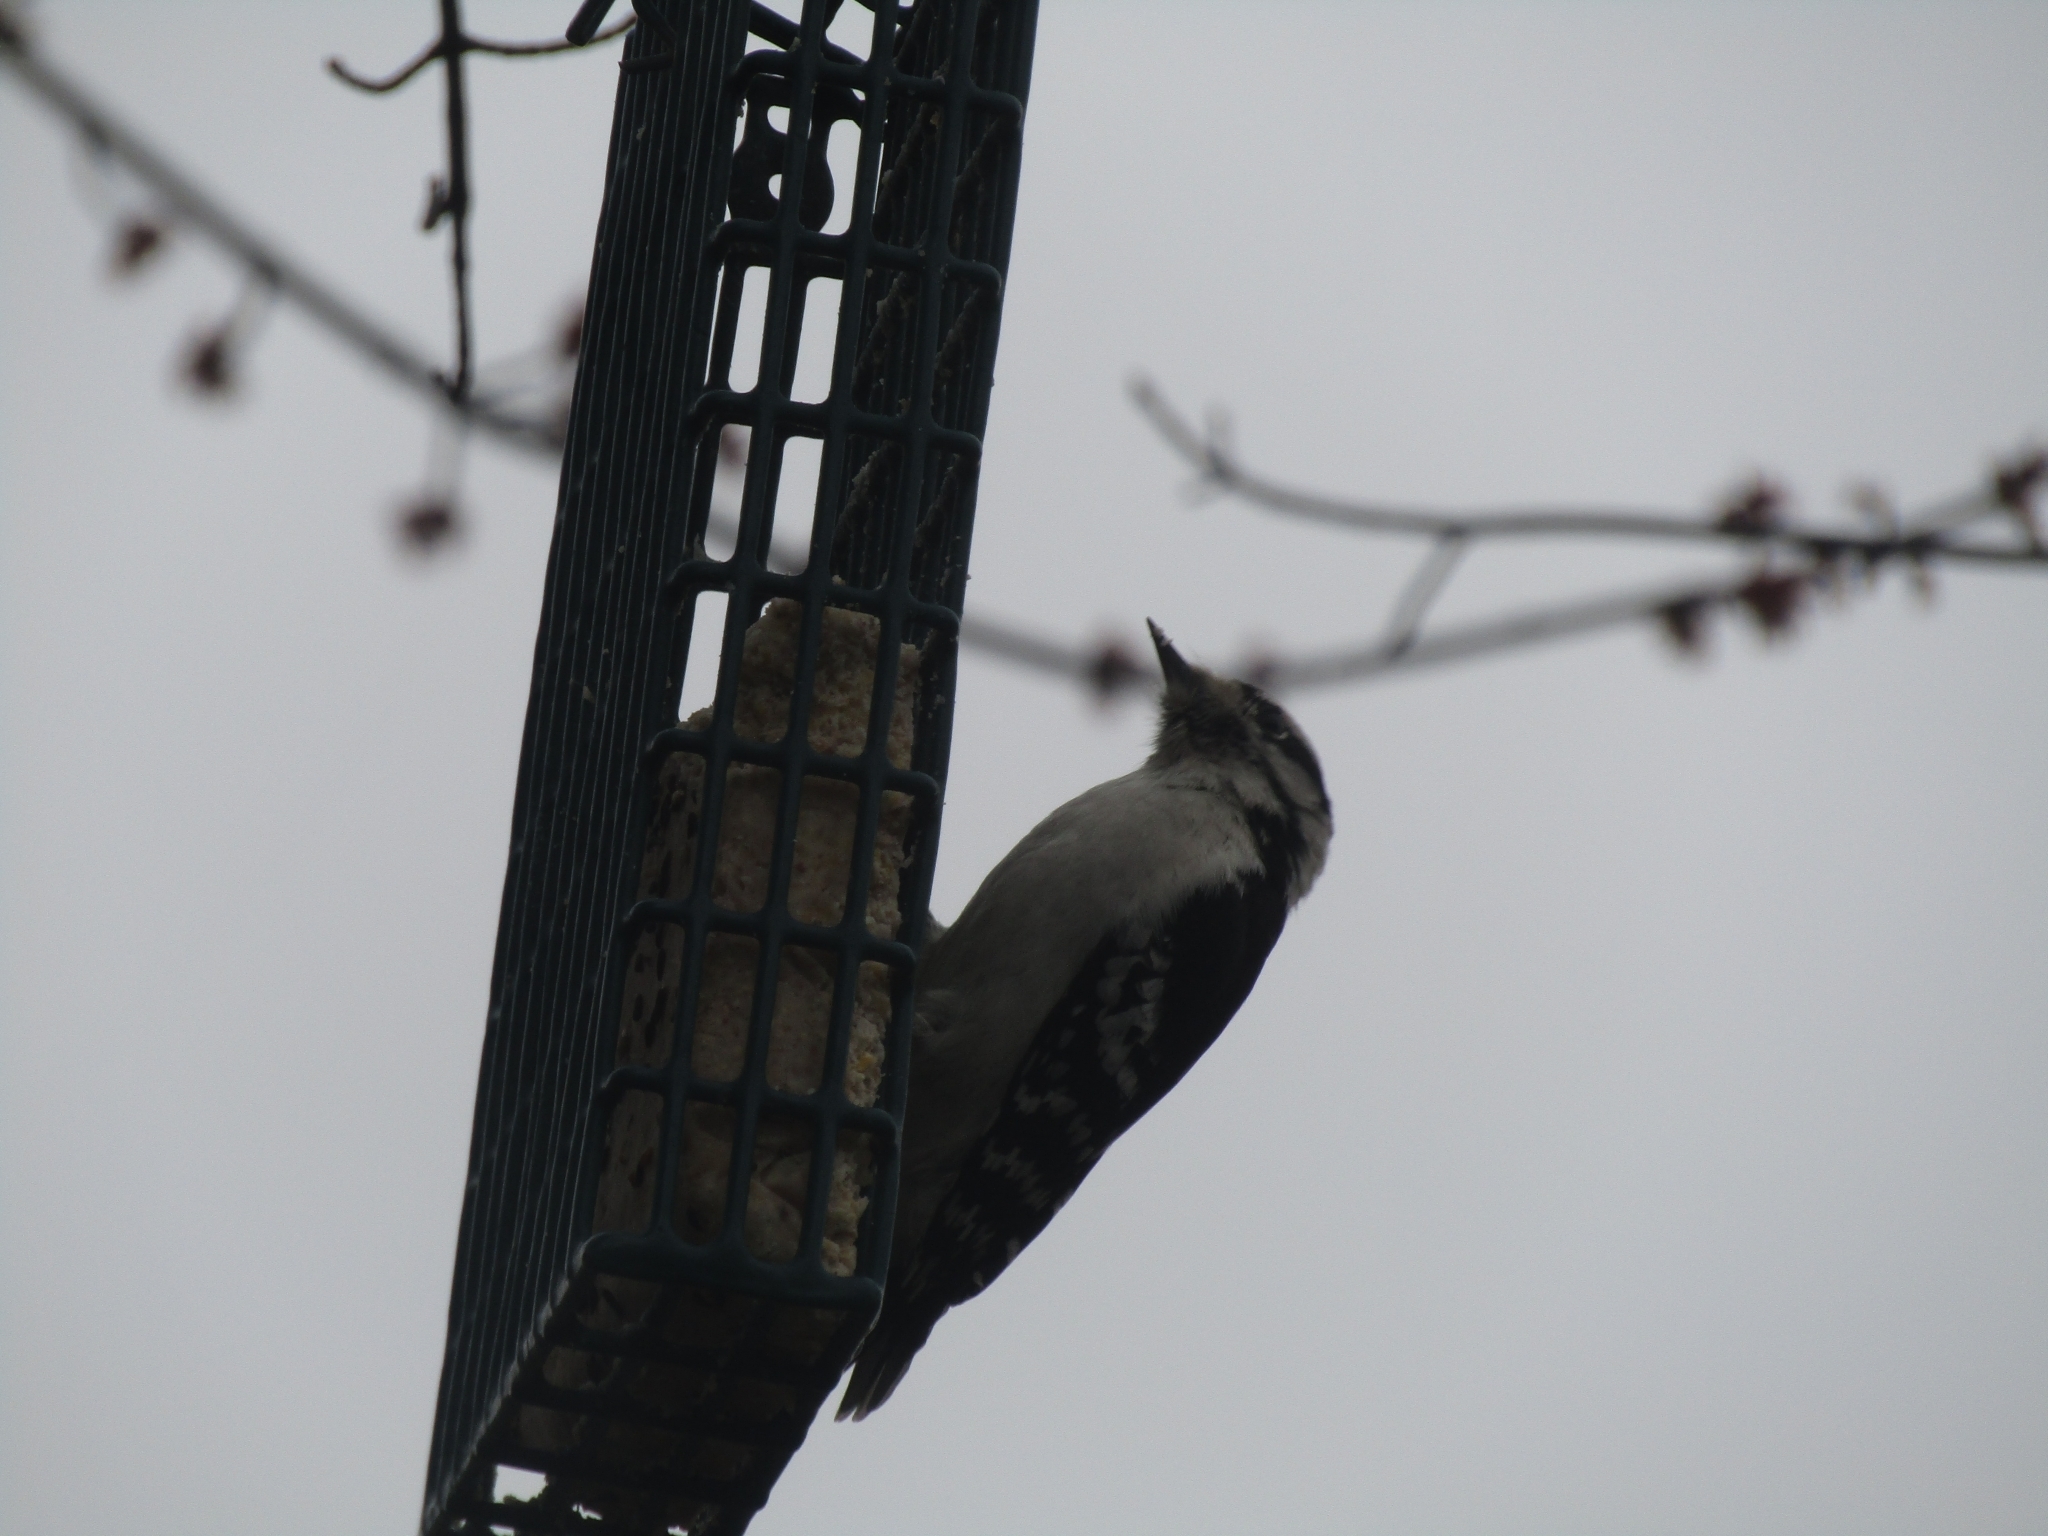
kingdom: Animalia
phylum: Chordata
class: Aves
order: Piciformes
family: Picidae
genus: Dryobates
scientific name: Dryobates pubescens
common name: Downy woodpecker
